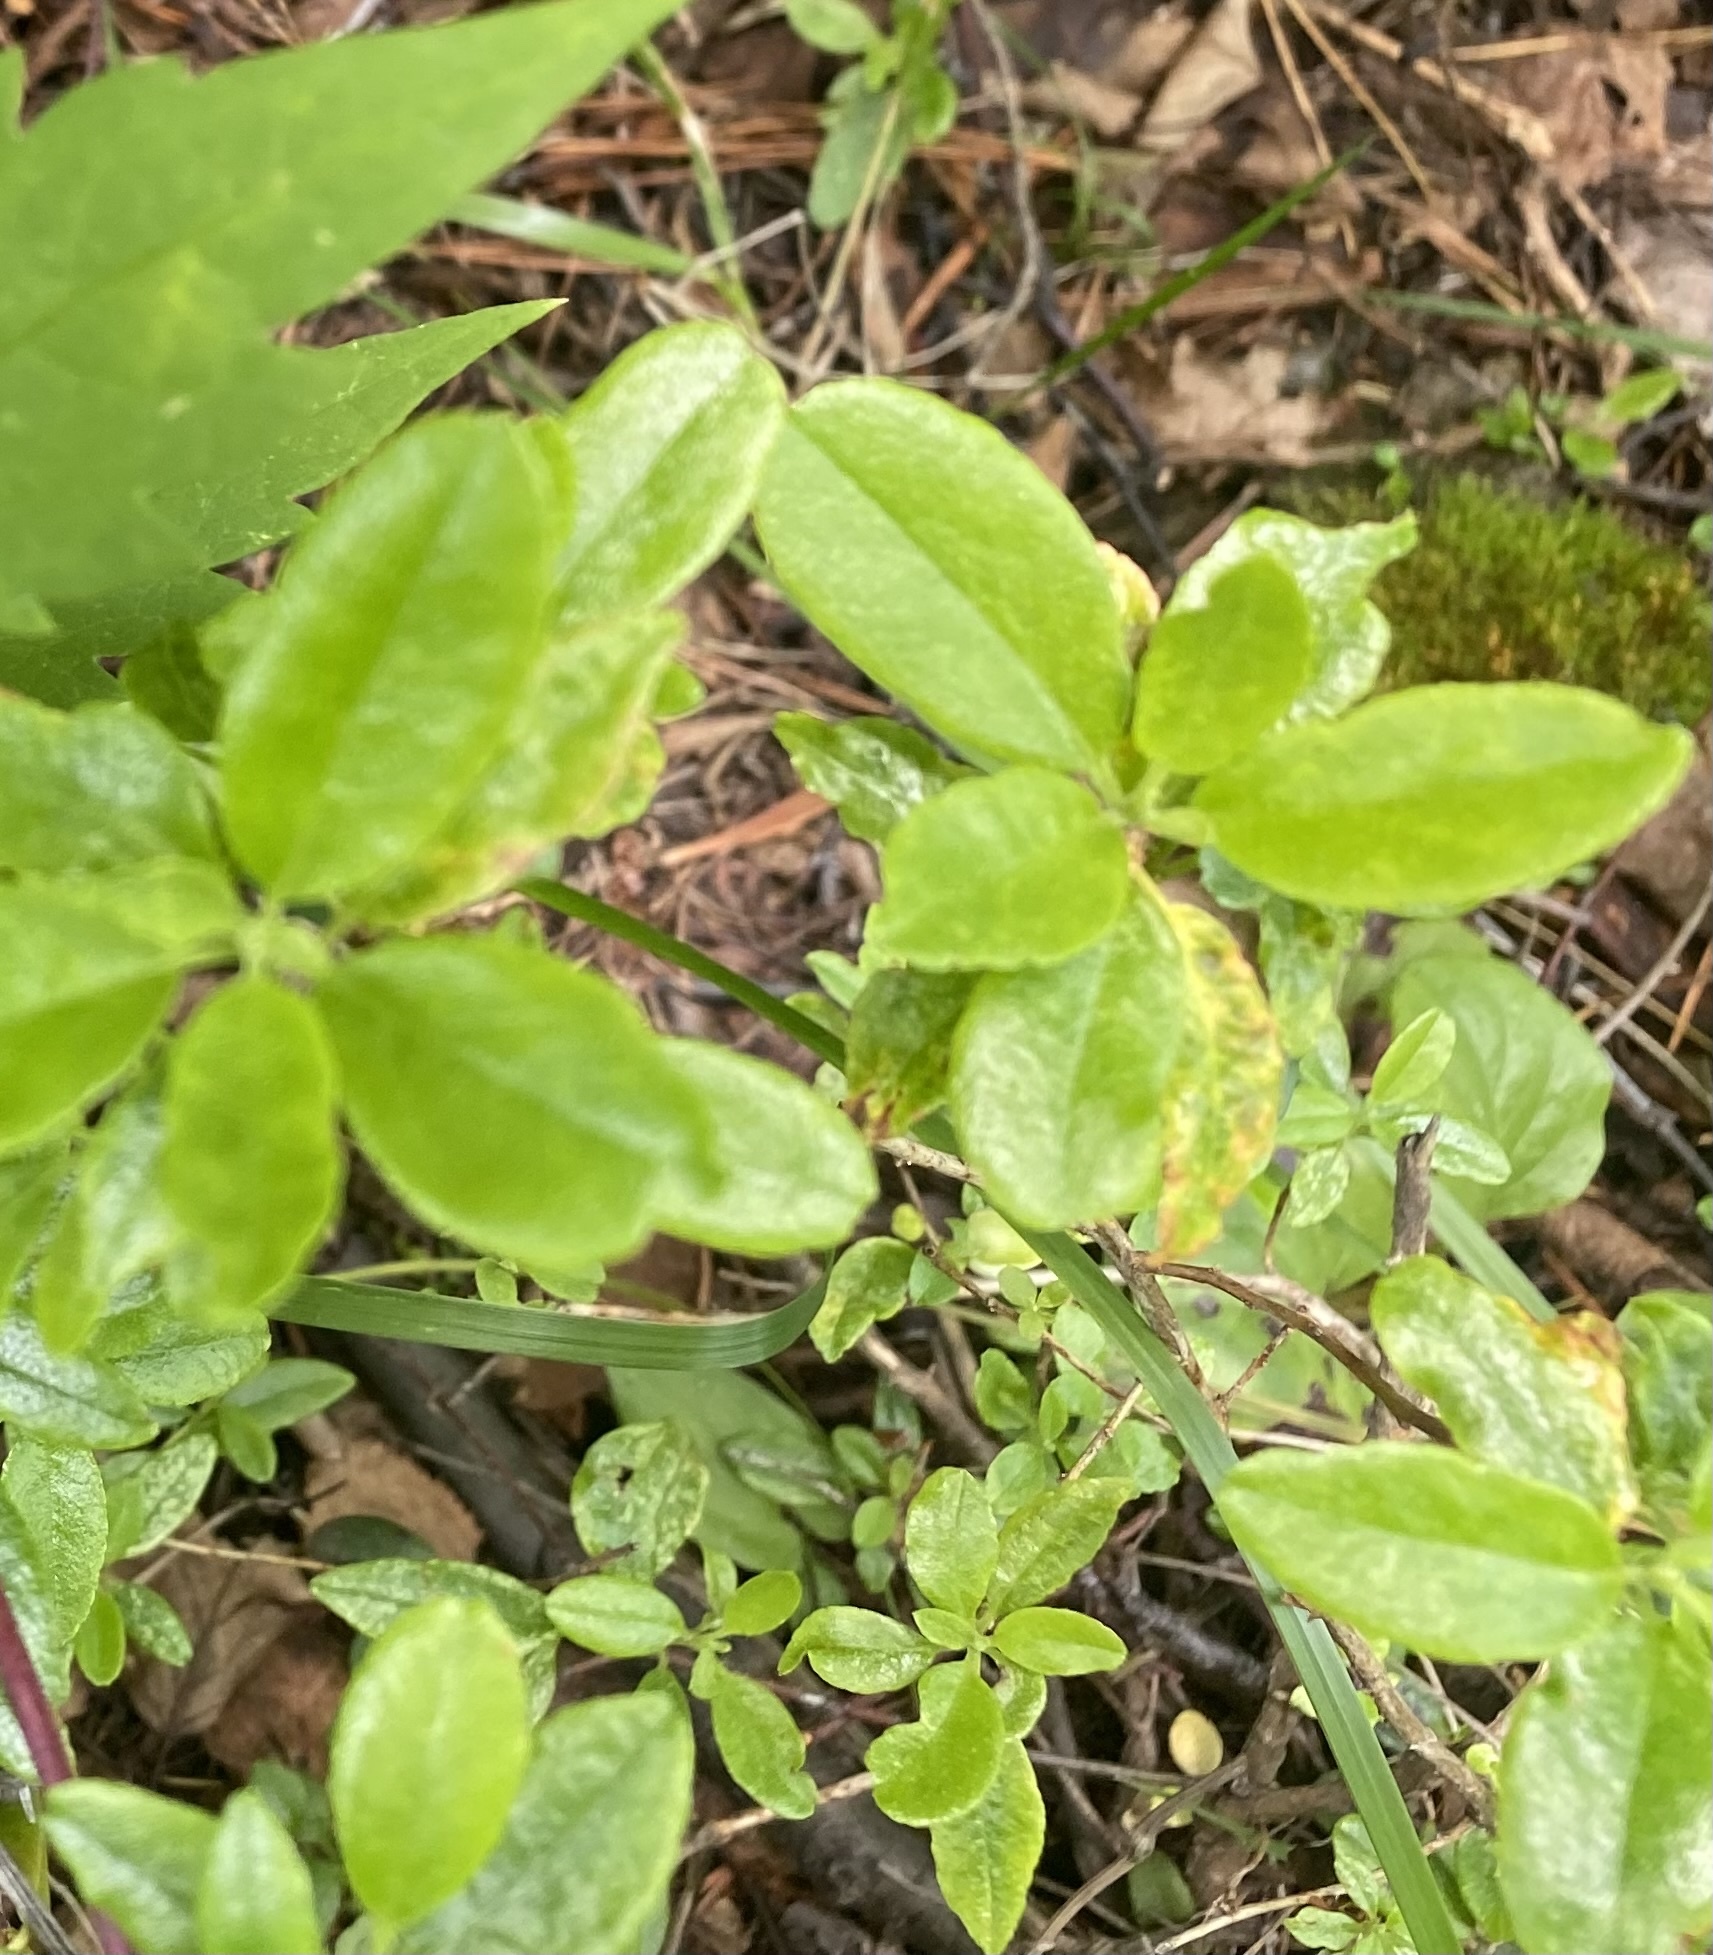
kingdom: Plantae
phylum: Tracheophyta
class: Magnoliopsida
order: Ericales
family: Ericaceae
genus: Rhododendron
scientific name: Rhododendron dauricum
